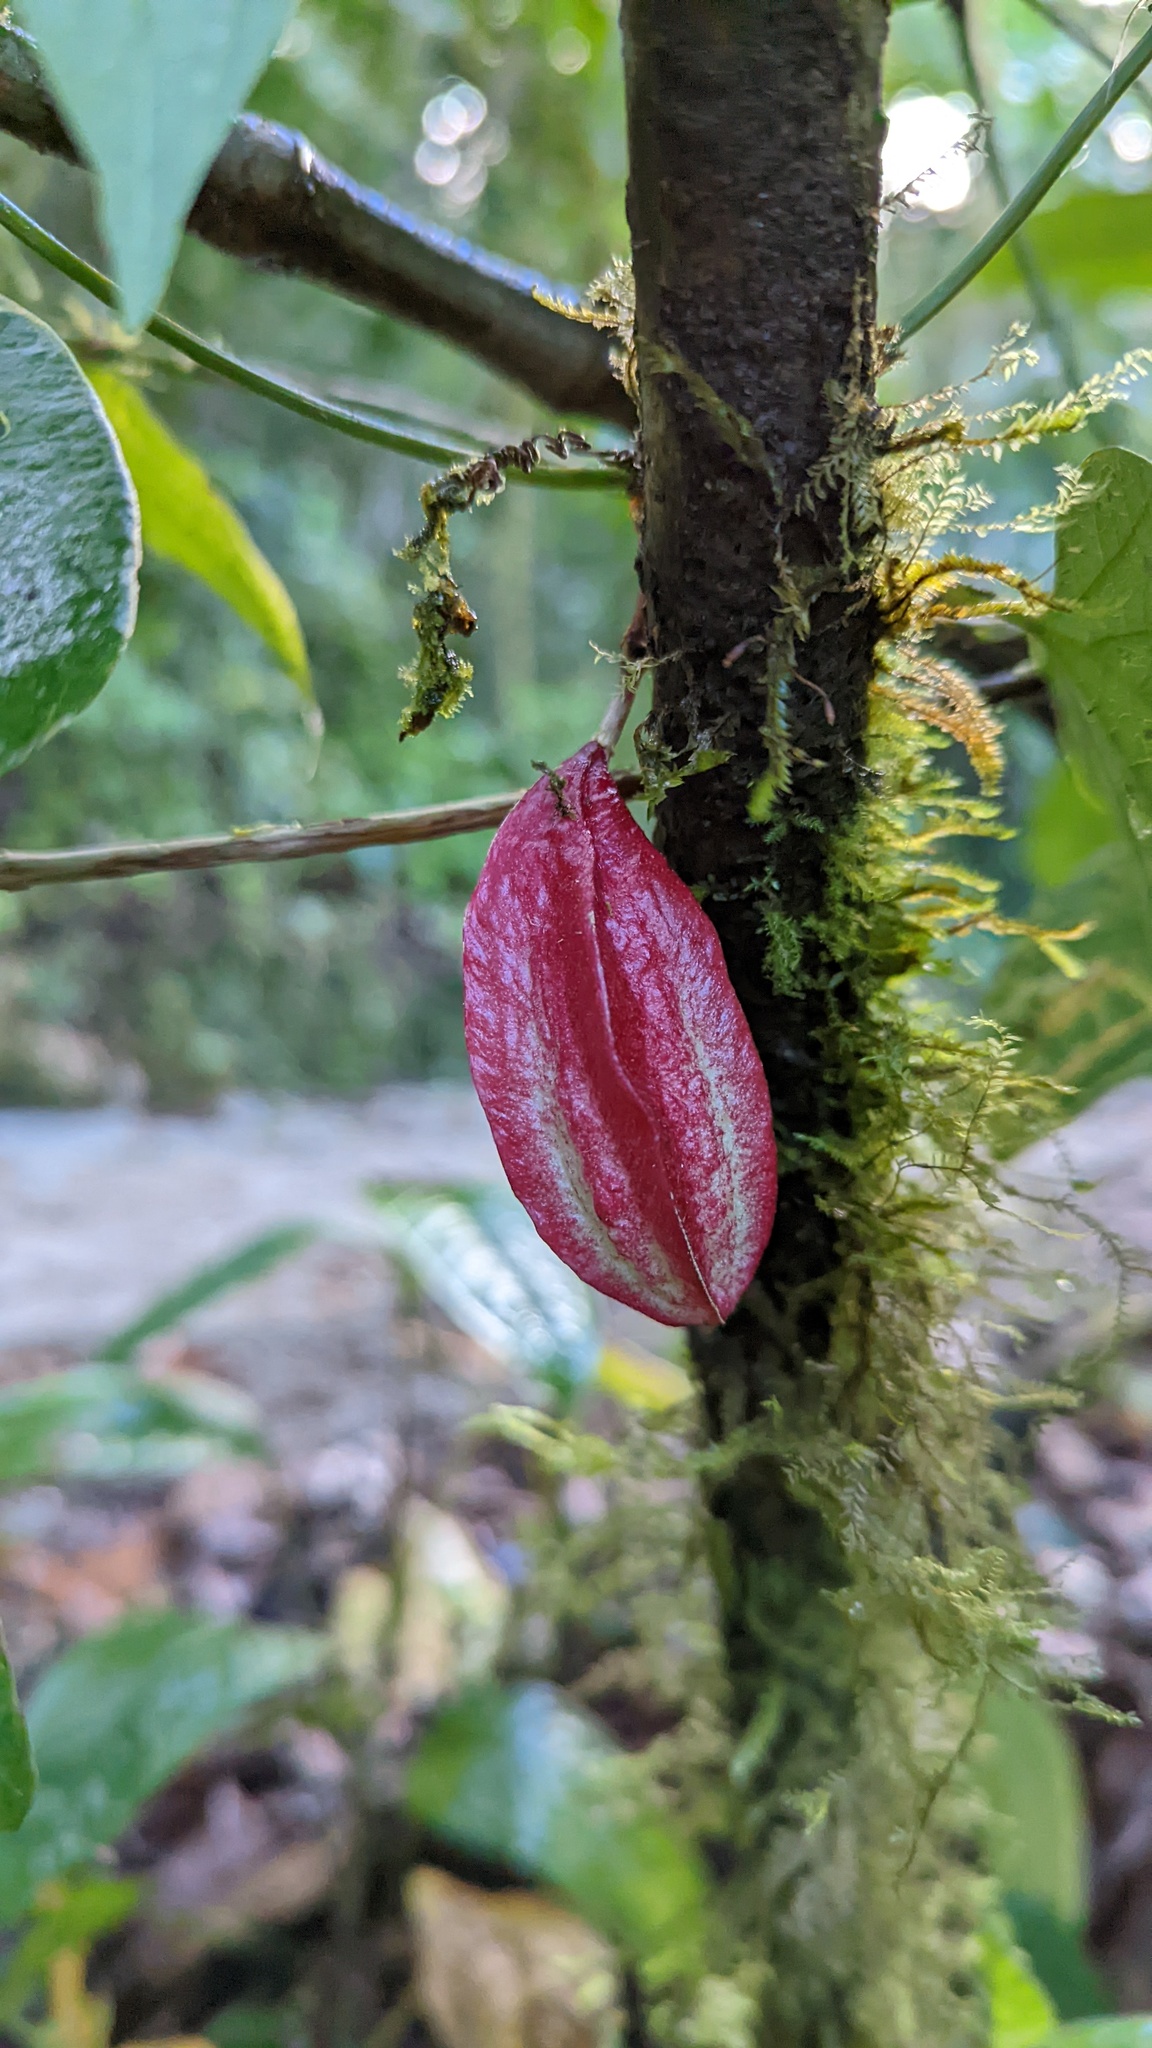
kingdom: Plantae
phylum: Tracheophyta
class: Magnoliopsida
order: Malpighiales
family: Passifloraceae
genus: Passiflora
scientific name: Passiflora capsularis
